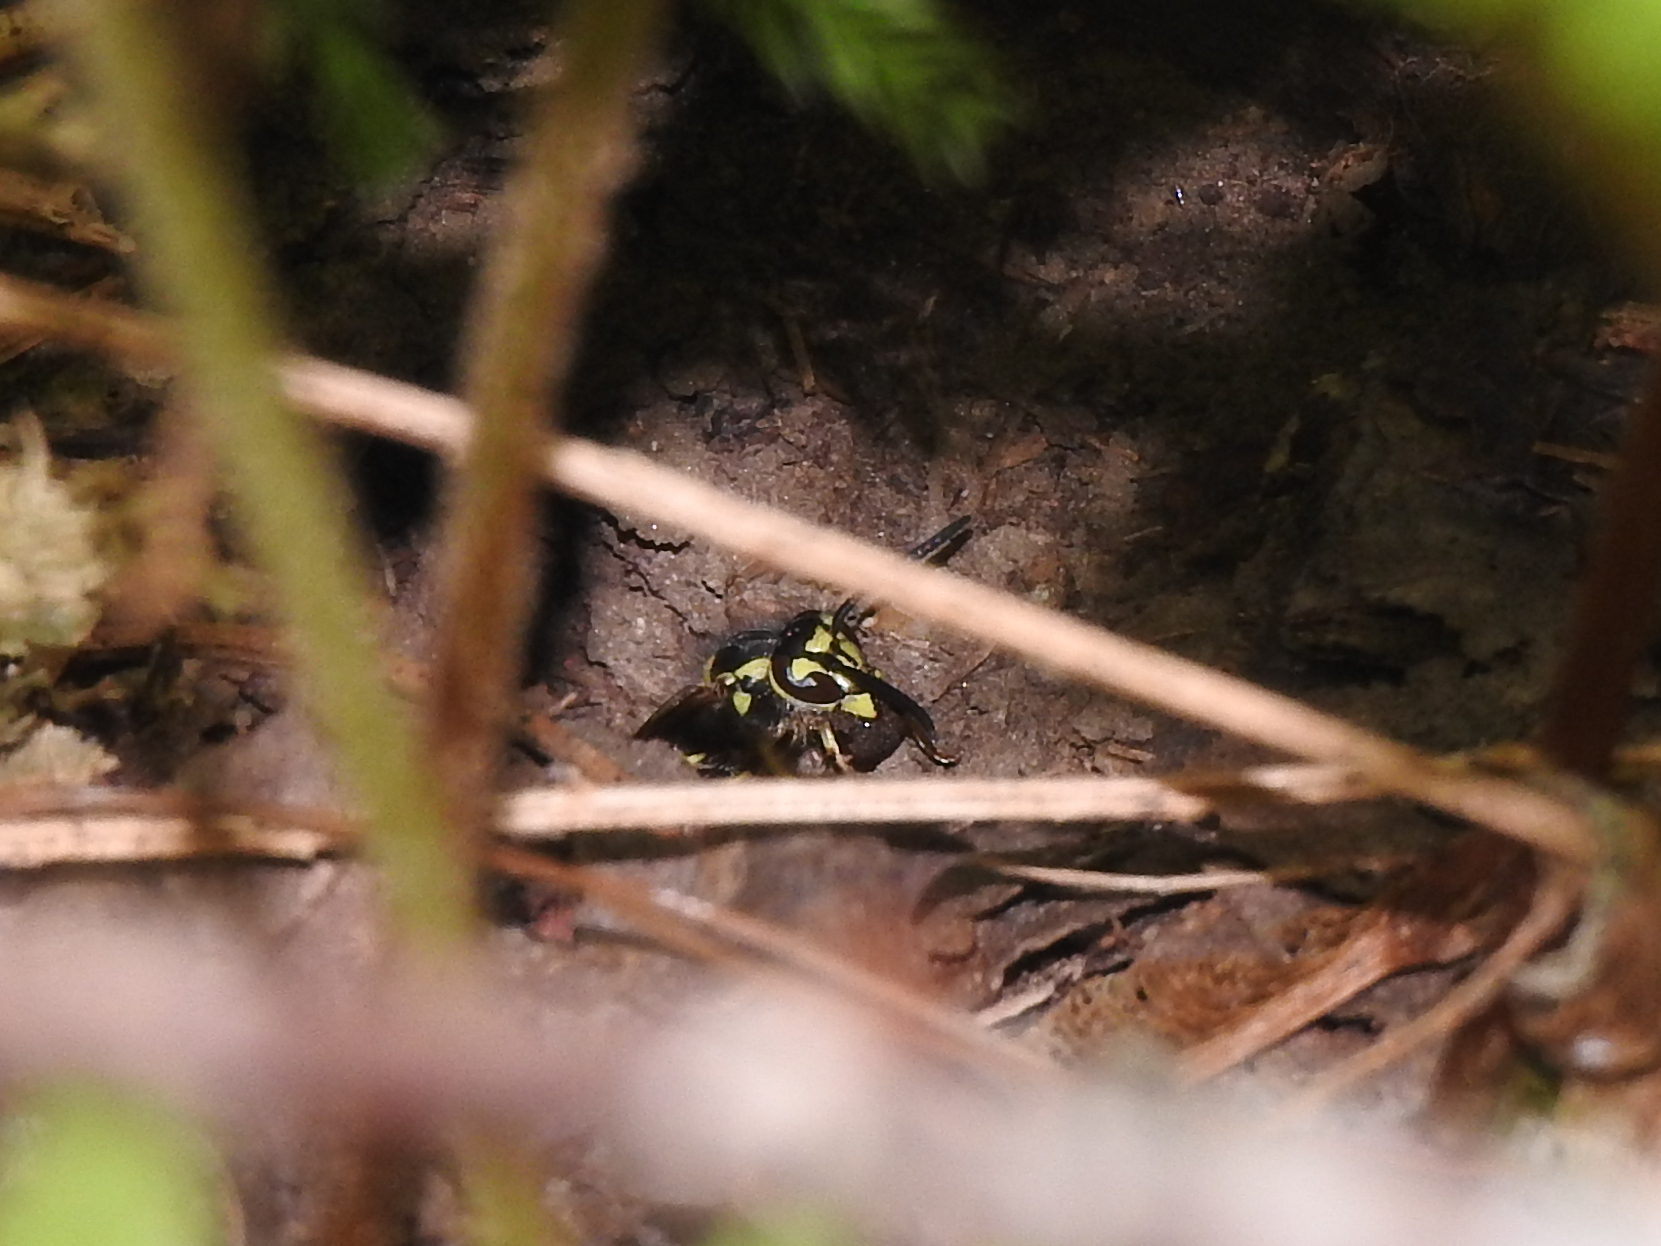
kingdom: Animalia
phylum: Arthropoda
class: Insecta
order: Hymenoptera
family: Vespidae
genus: Vespula
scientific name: Vespula maculifrons
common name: Eastern yellowjacket
